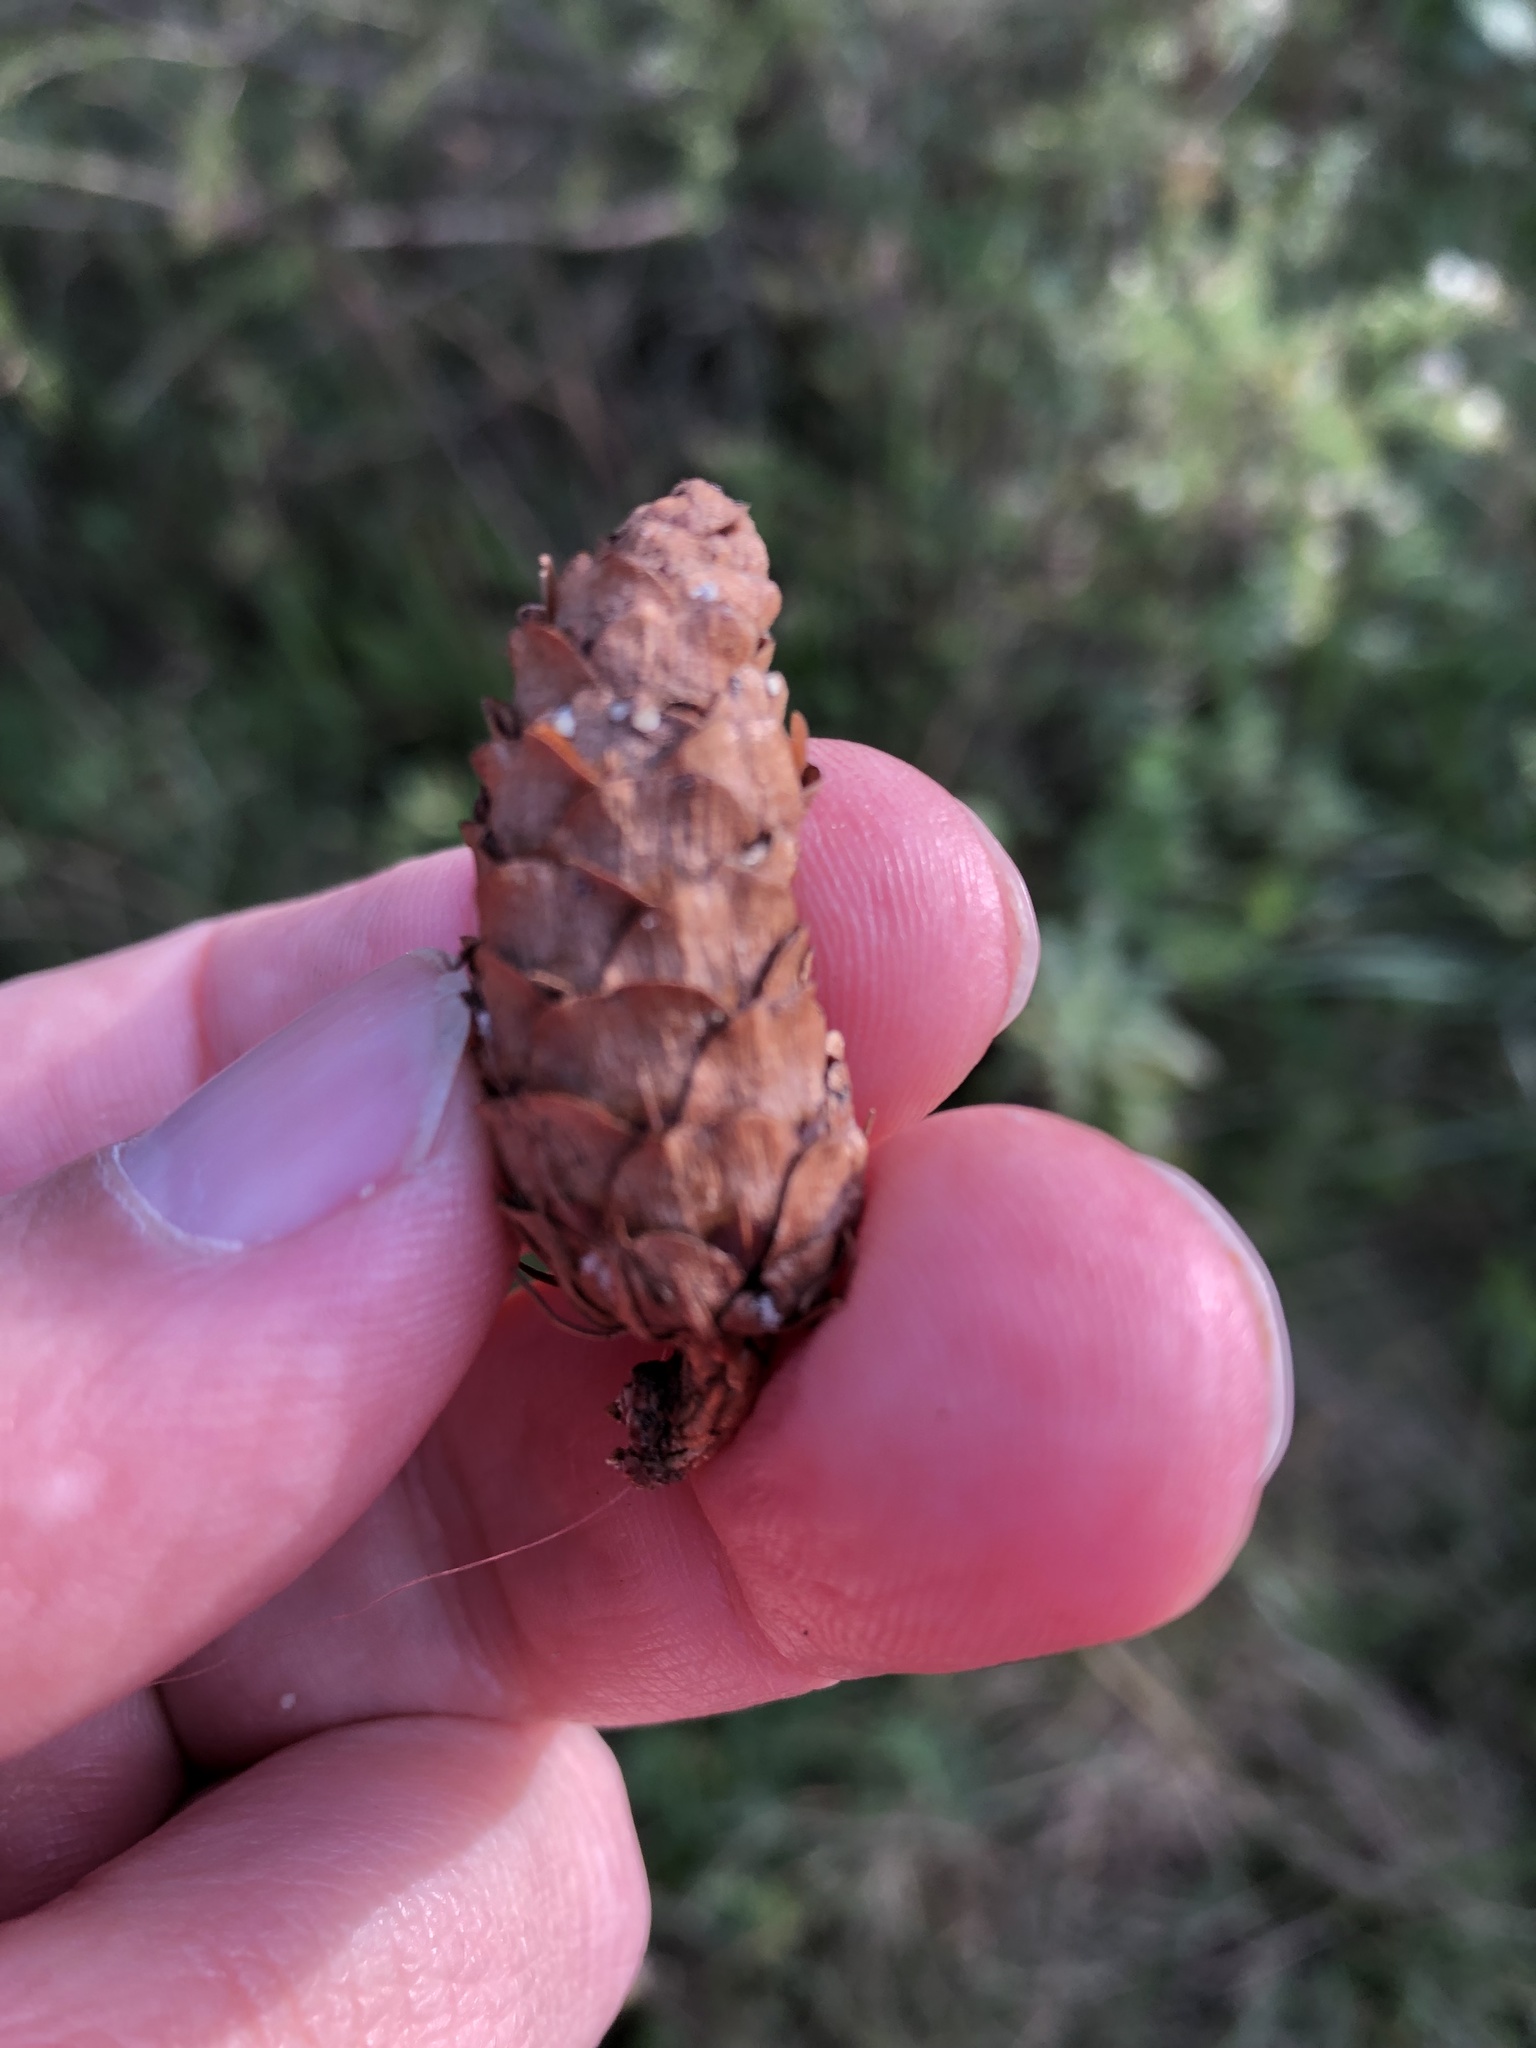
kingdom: Plantae
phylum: Tracheophyta
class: Pinopsida
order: Pinales
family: Pinaceae
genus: Picea
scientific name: Picea glauca
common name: White spruce
